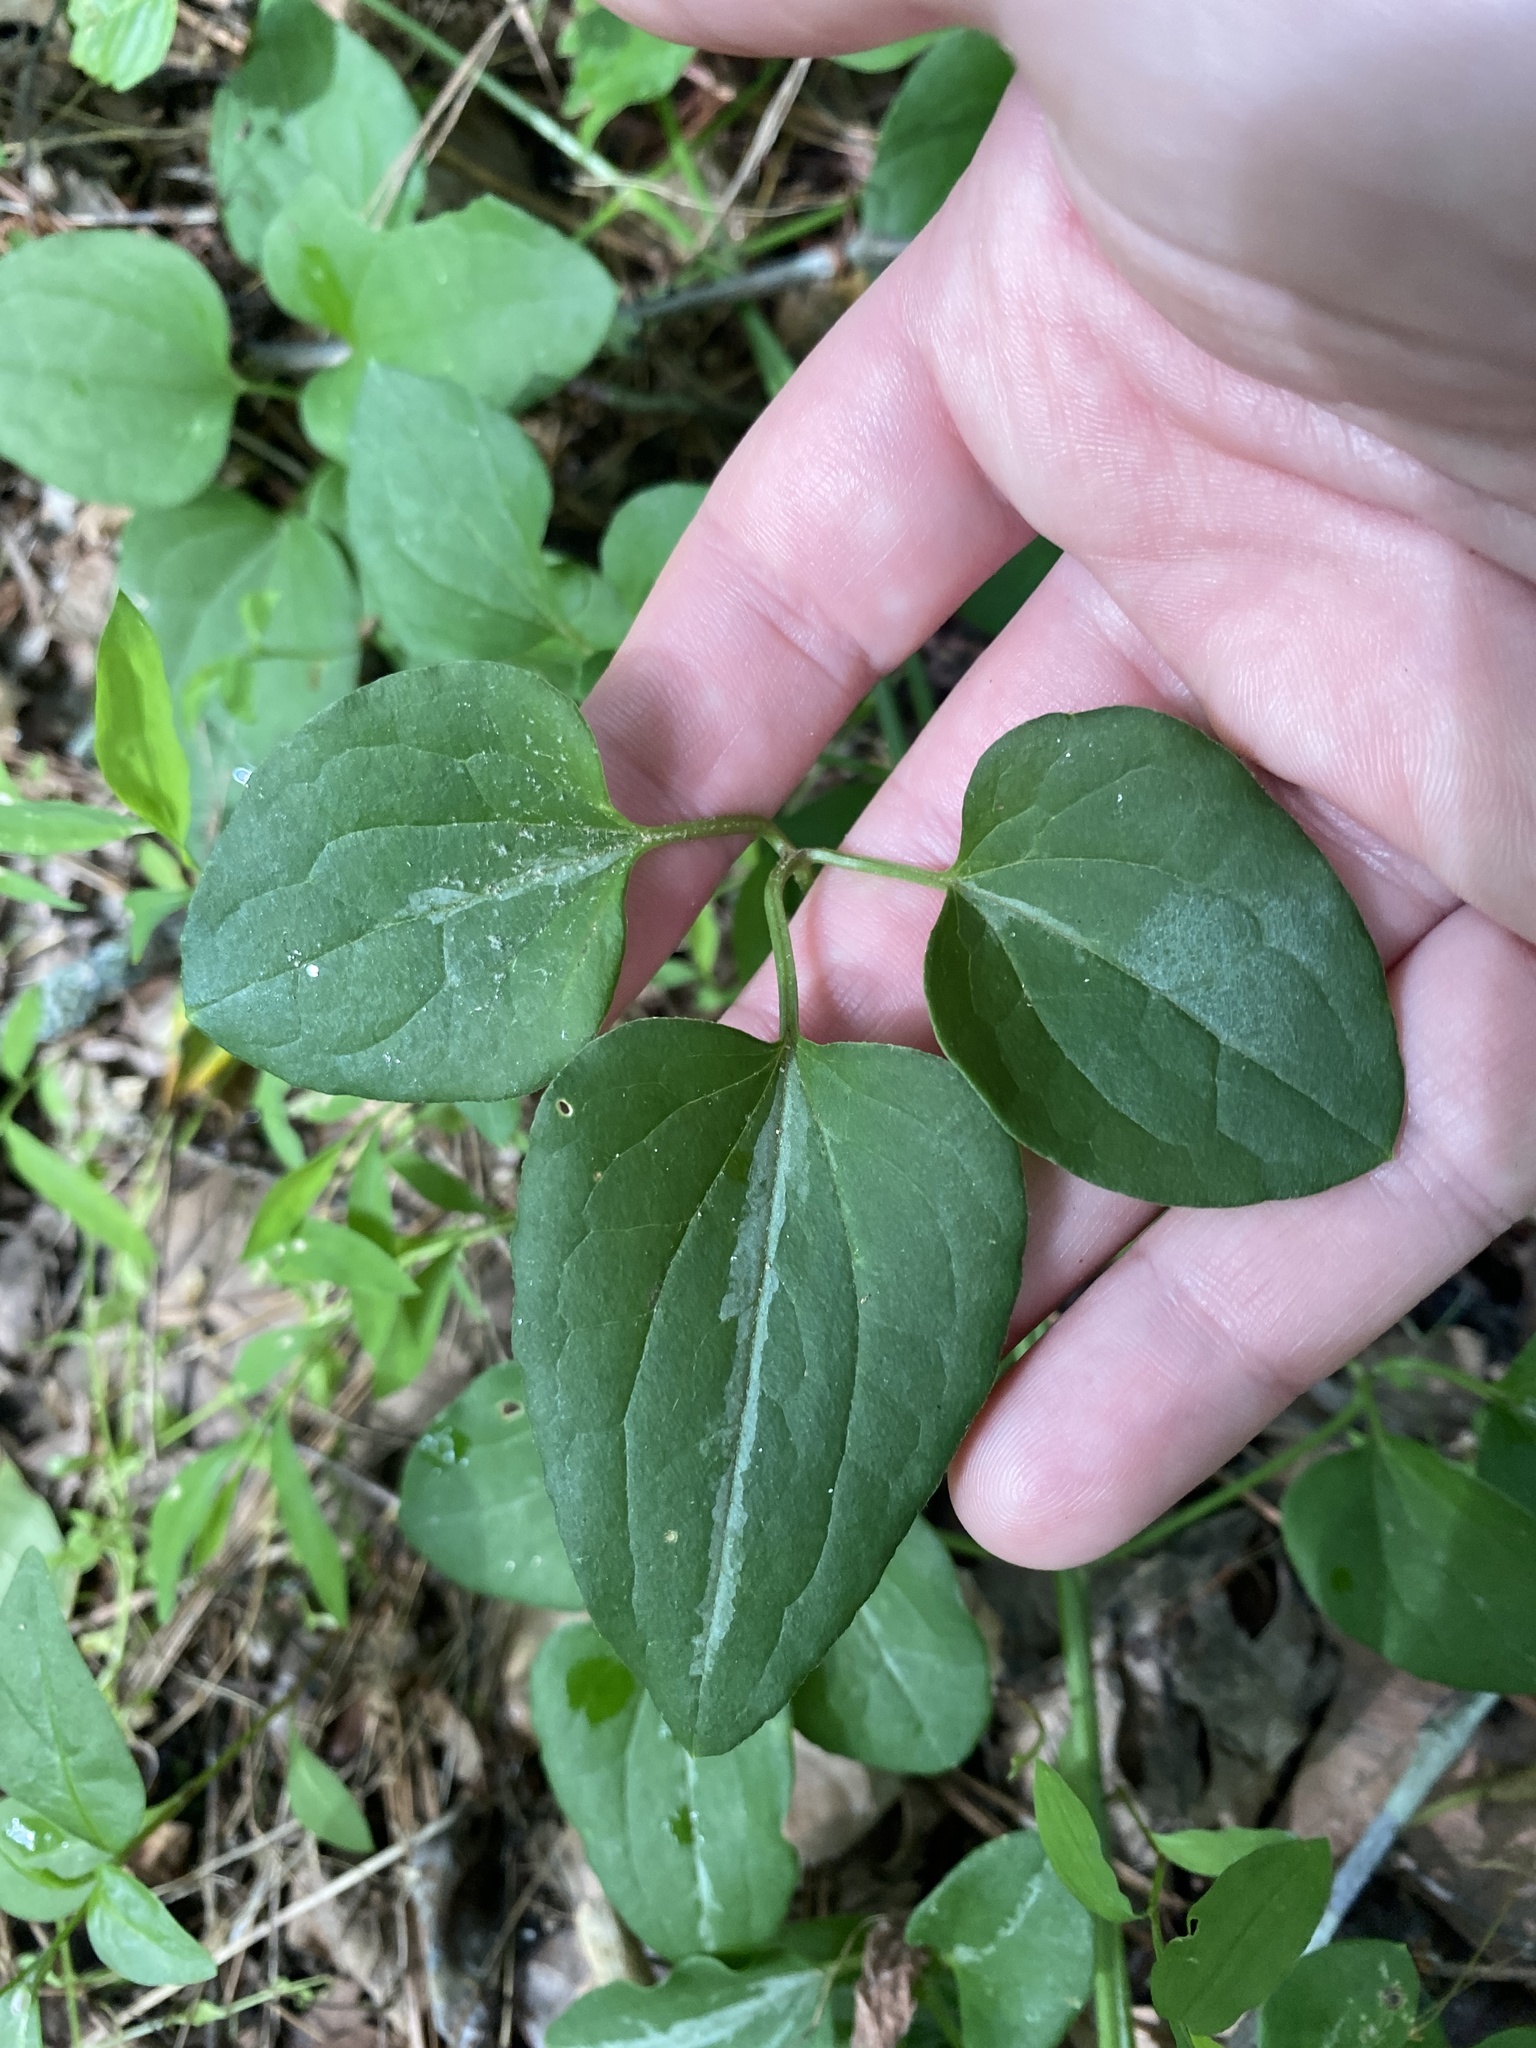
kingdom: Plantae
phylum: Tracheophyta
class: Magnoliopsida
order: Ranunculales
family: Ranunculaceae
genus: Clematis
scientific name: Clematis terniflora
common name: Sweet autumn clematis
